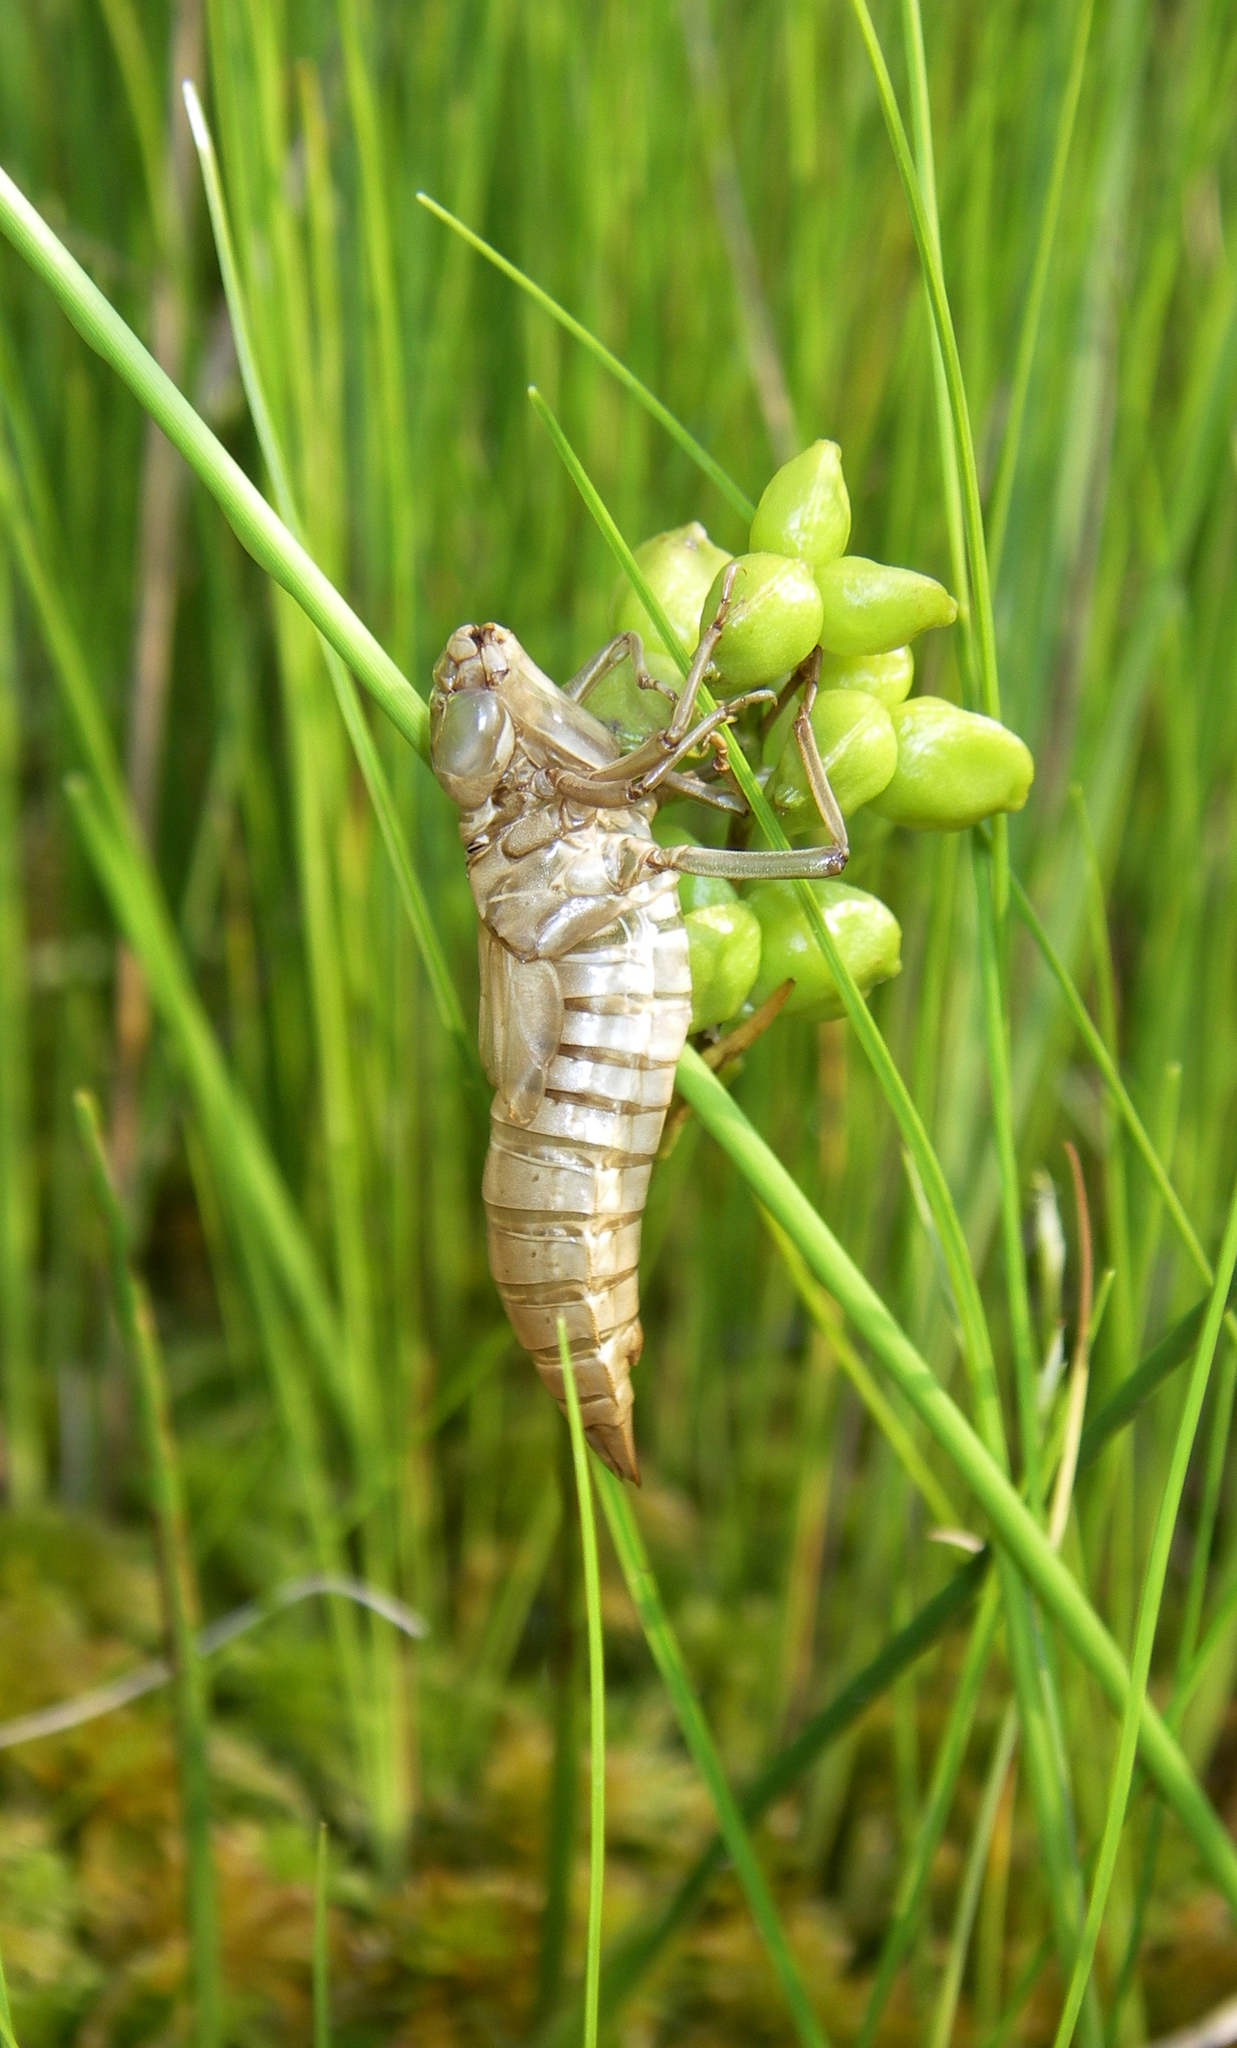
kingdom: Animalia
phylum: Arthropoda
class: Insecta
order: Odonata
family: Aeshnidae
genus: Aeshna
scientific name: Aeshna subarctica
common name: Subarctic darner
